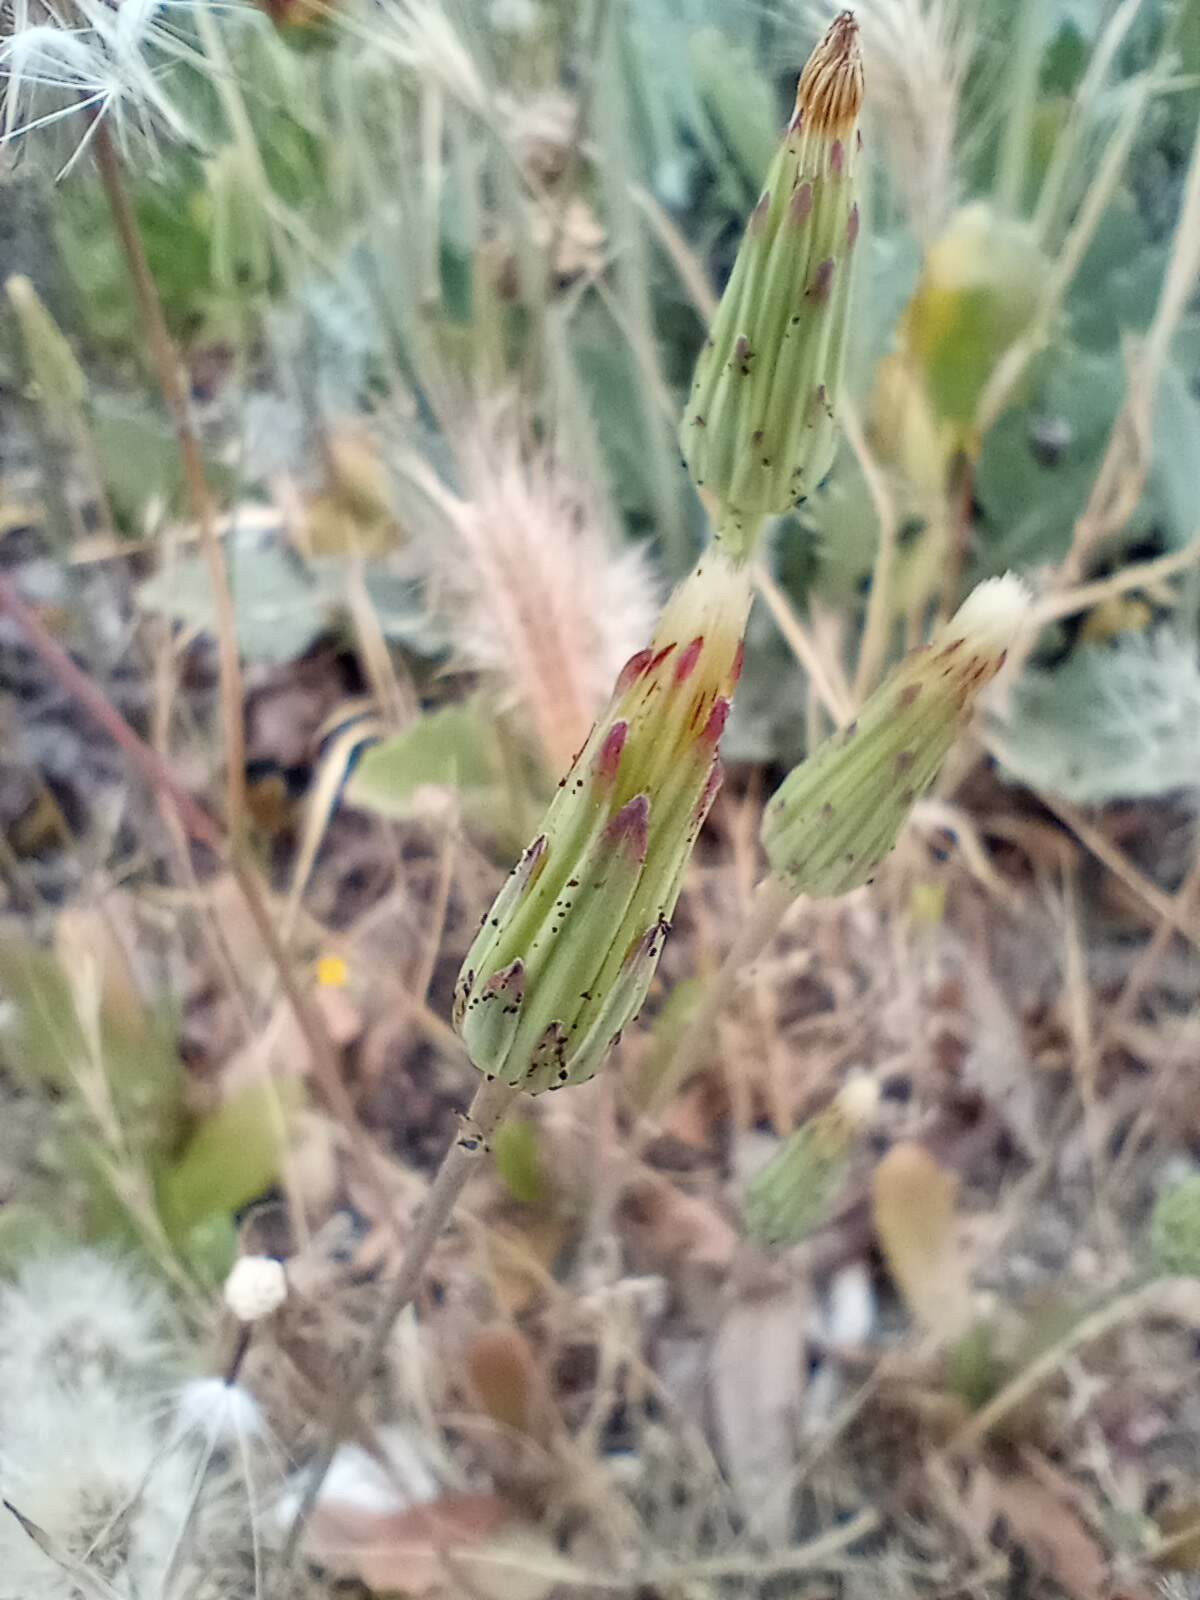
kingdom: Plantae
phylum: Tracheophyta
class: Magnoliopsida
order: Asterales
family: Asteraceae
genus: Hypochaeris
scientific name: Hypochaeris glabra
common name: Smooth catsear
